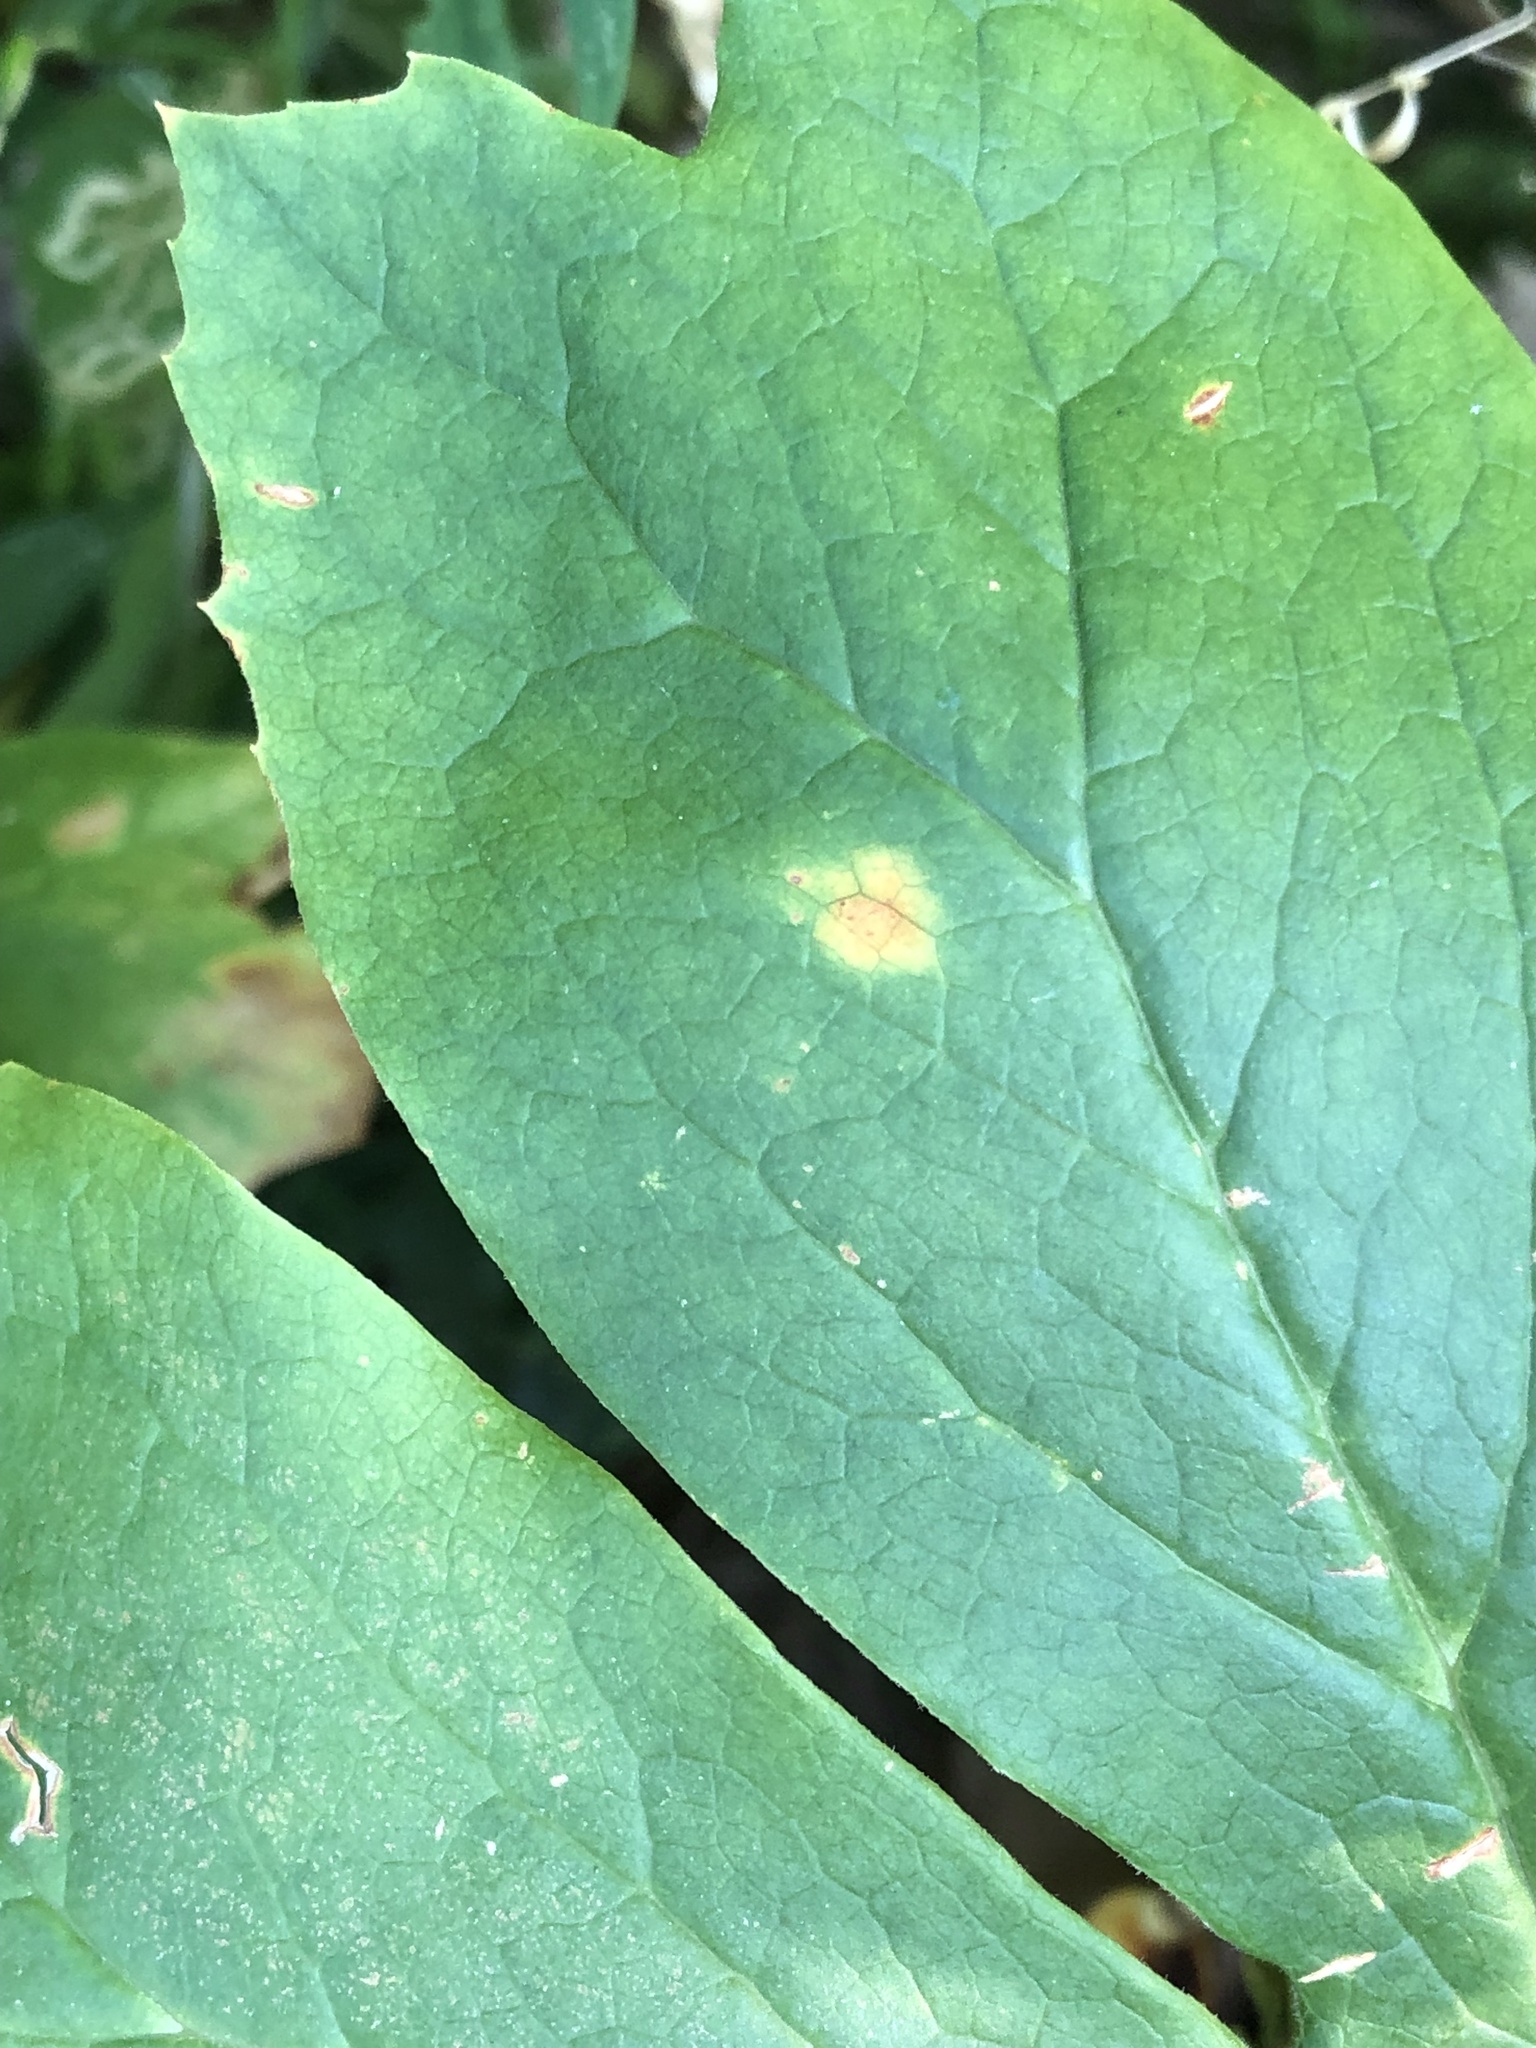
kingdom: Fungi
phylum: Basidiomycota
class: Pucciniomycetes
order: Pucciniales
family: Pucciniaceae
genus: Puccinia
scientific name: Puccinia podophylli
